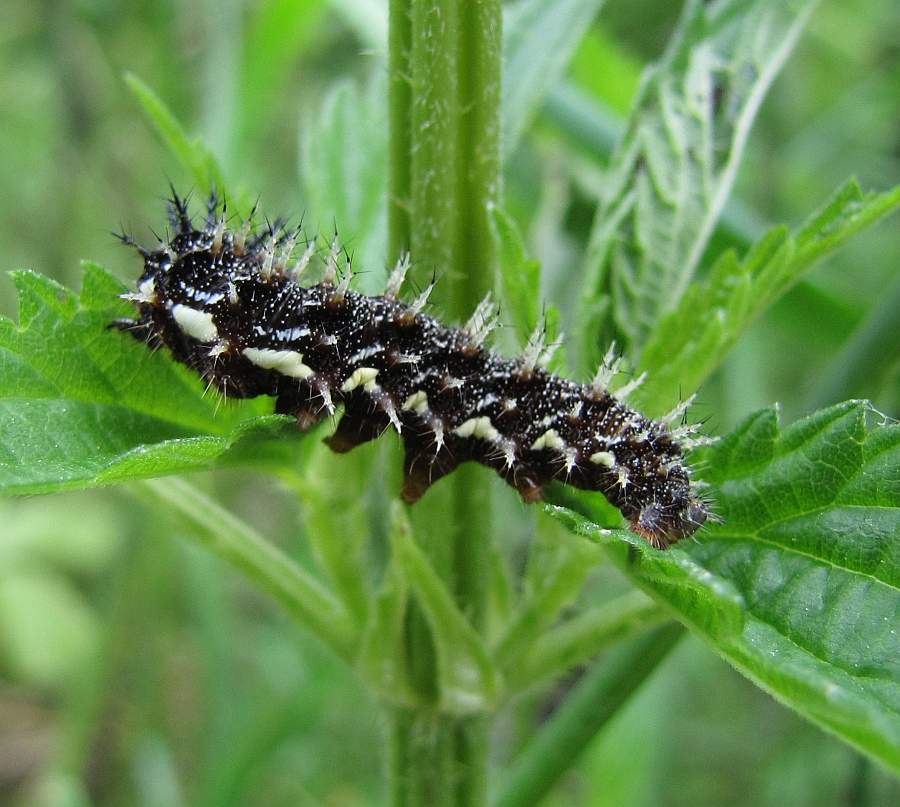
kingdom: Animalia
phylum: Arthropoda
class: Insecta
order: Lepidoptera
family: Nymphalidae
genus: Vanessa
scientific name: Vanessa atalanta
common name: Red admiral
